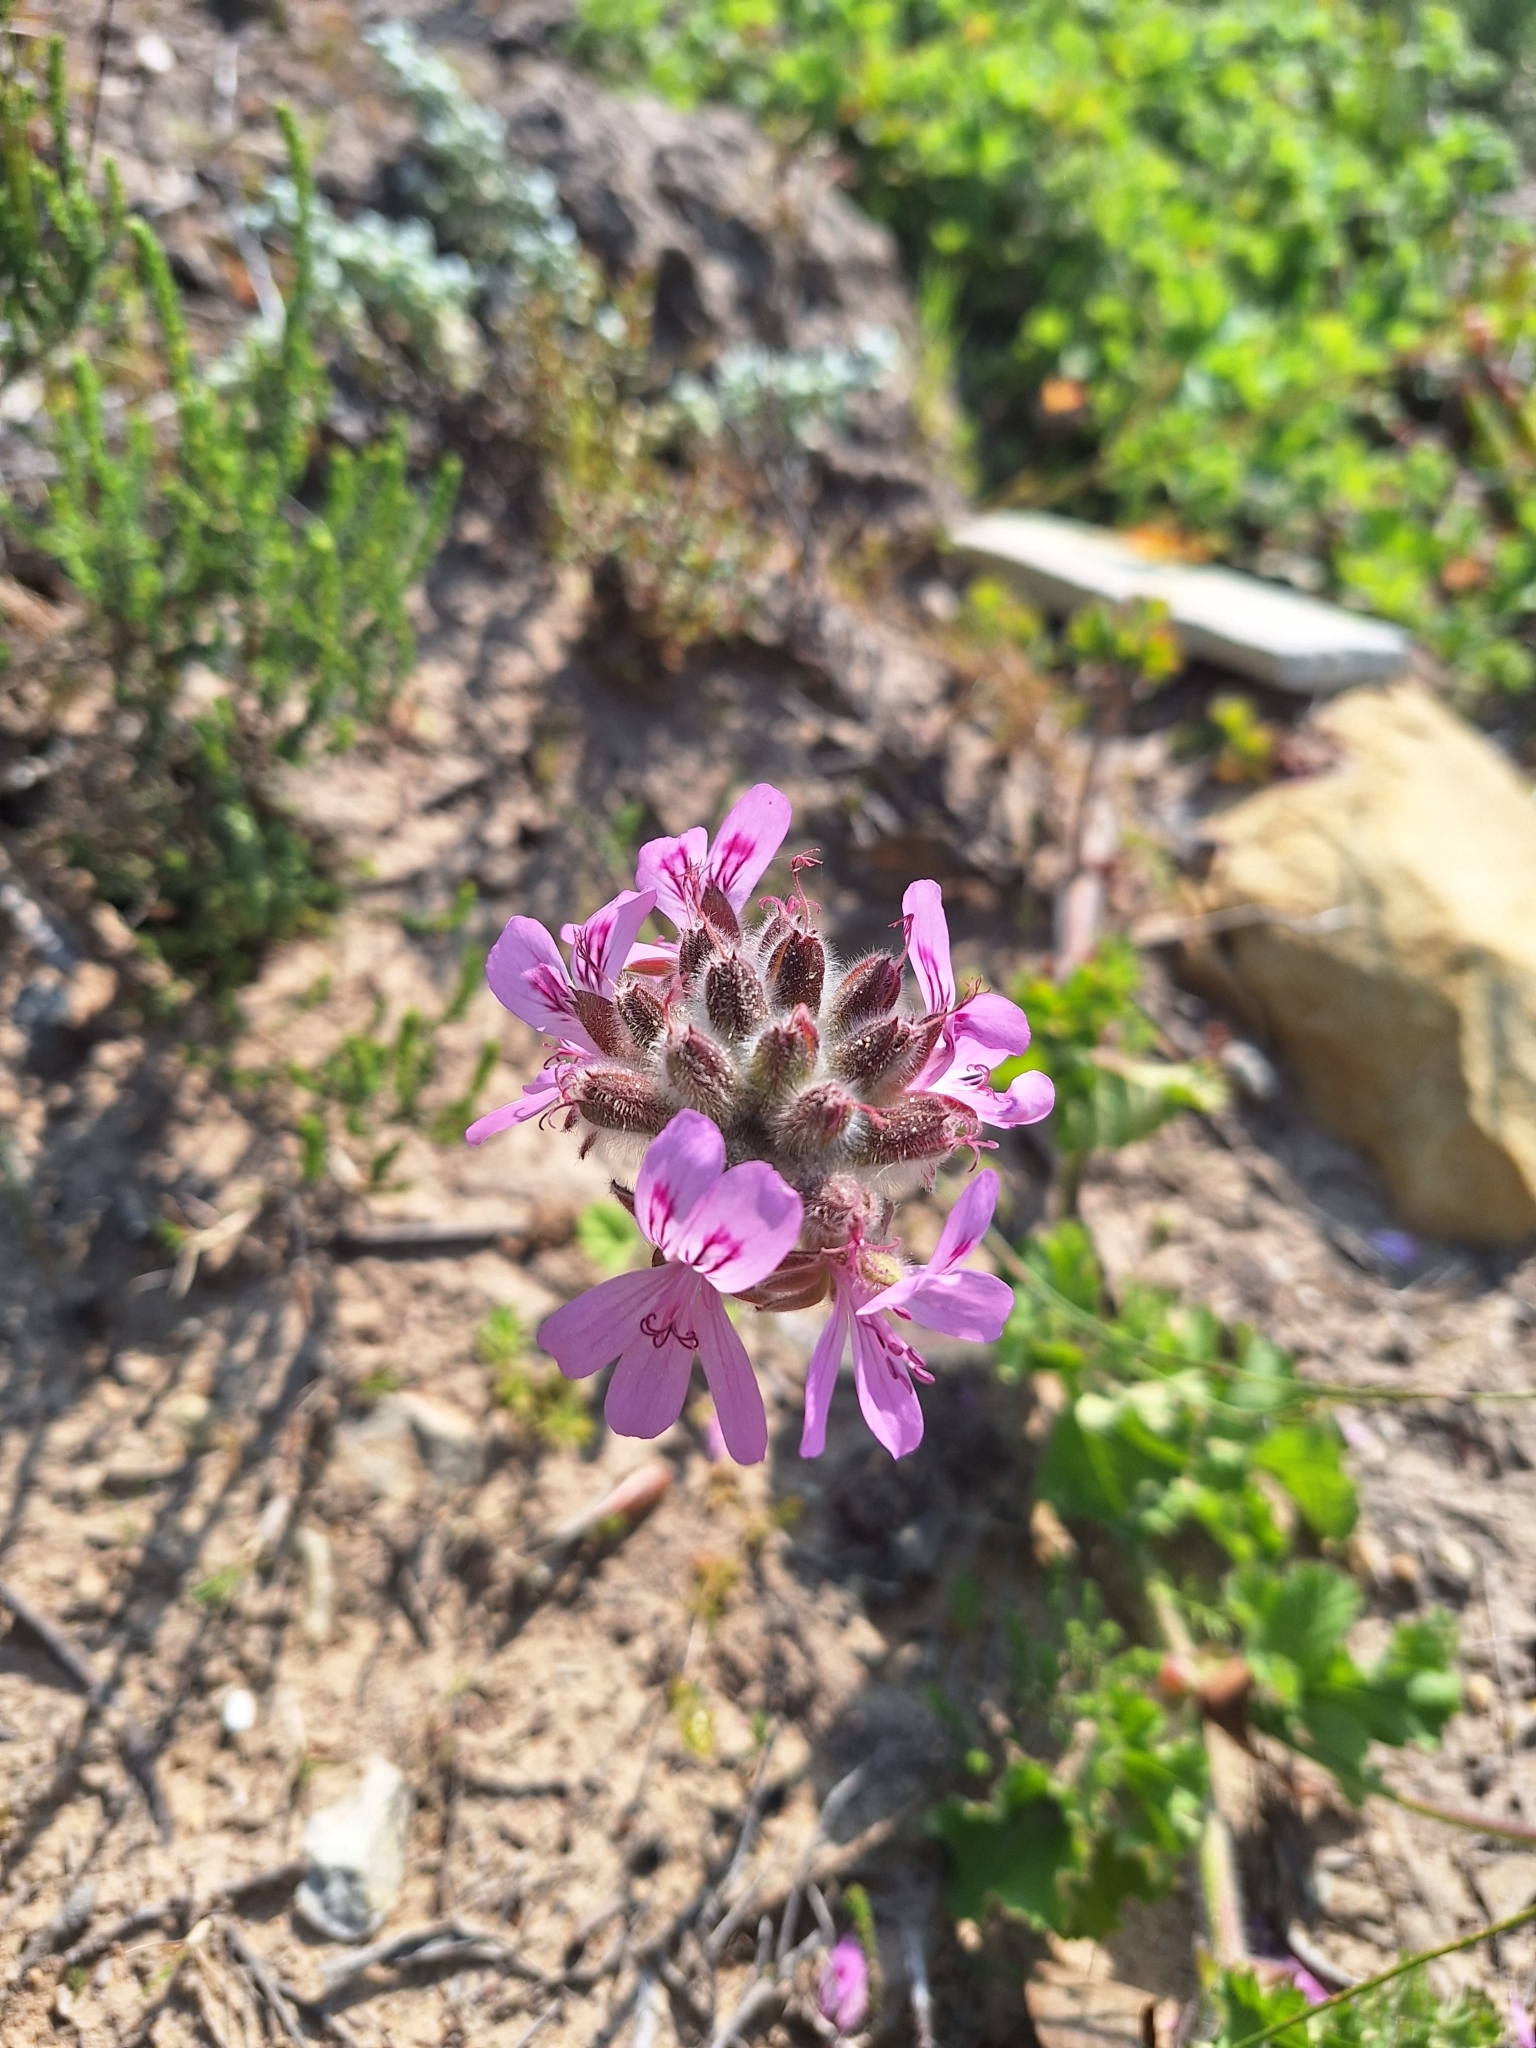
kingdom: Plantae
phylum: Tracheophyta
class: Magnoliopsida
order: Geraniales
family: Geraniaceae
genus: Pelargonium
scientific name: Pelargonium capitatum
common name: Rose scented geranium
